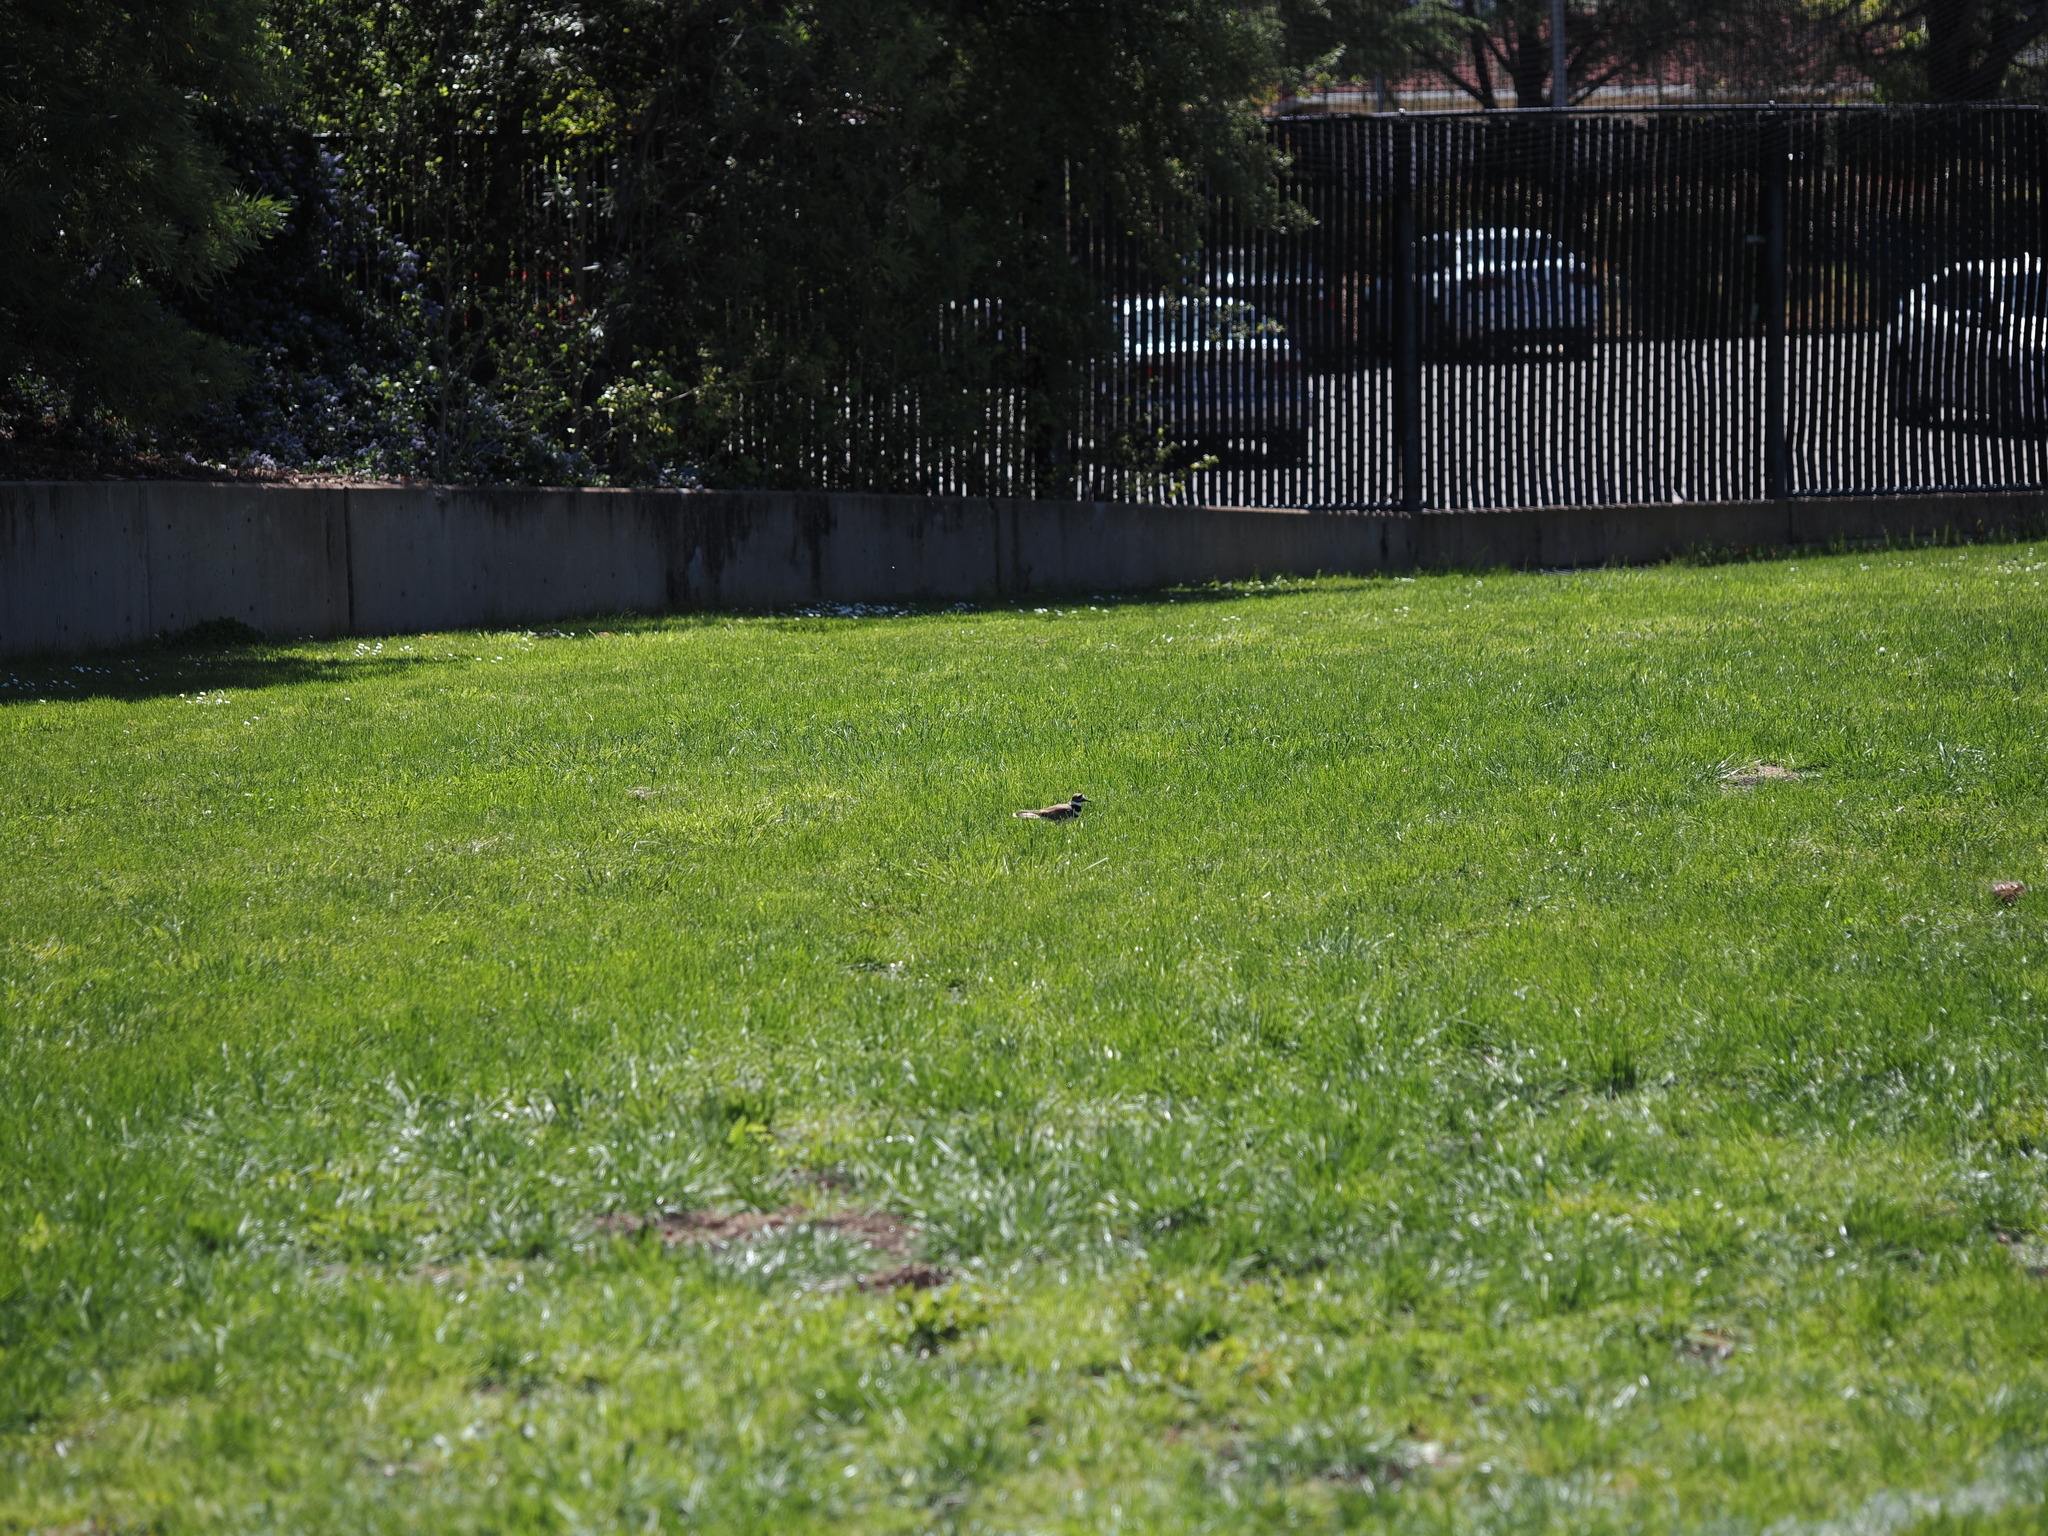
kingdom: Animalia
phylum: Chordata
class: Aves
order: Charadriiformes
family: Charadriidae
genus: Charadrius
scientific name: Charadrius vociferus
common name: Killdeer
